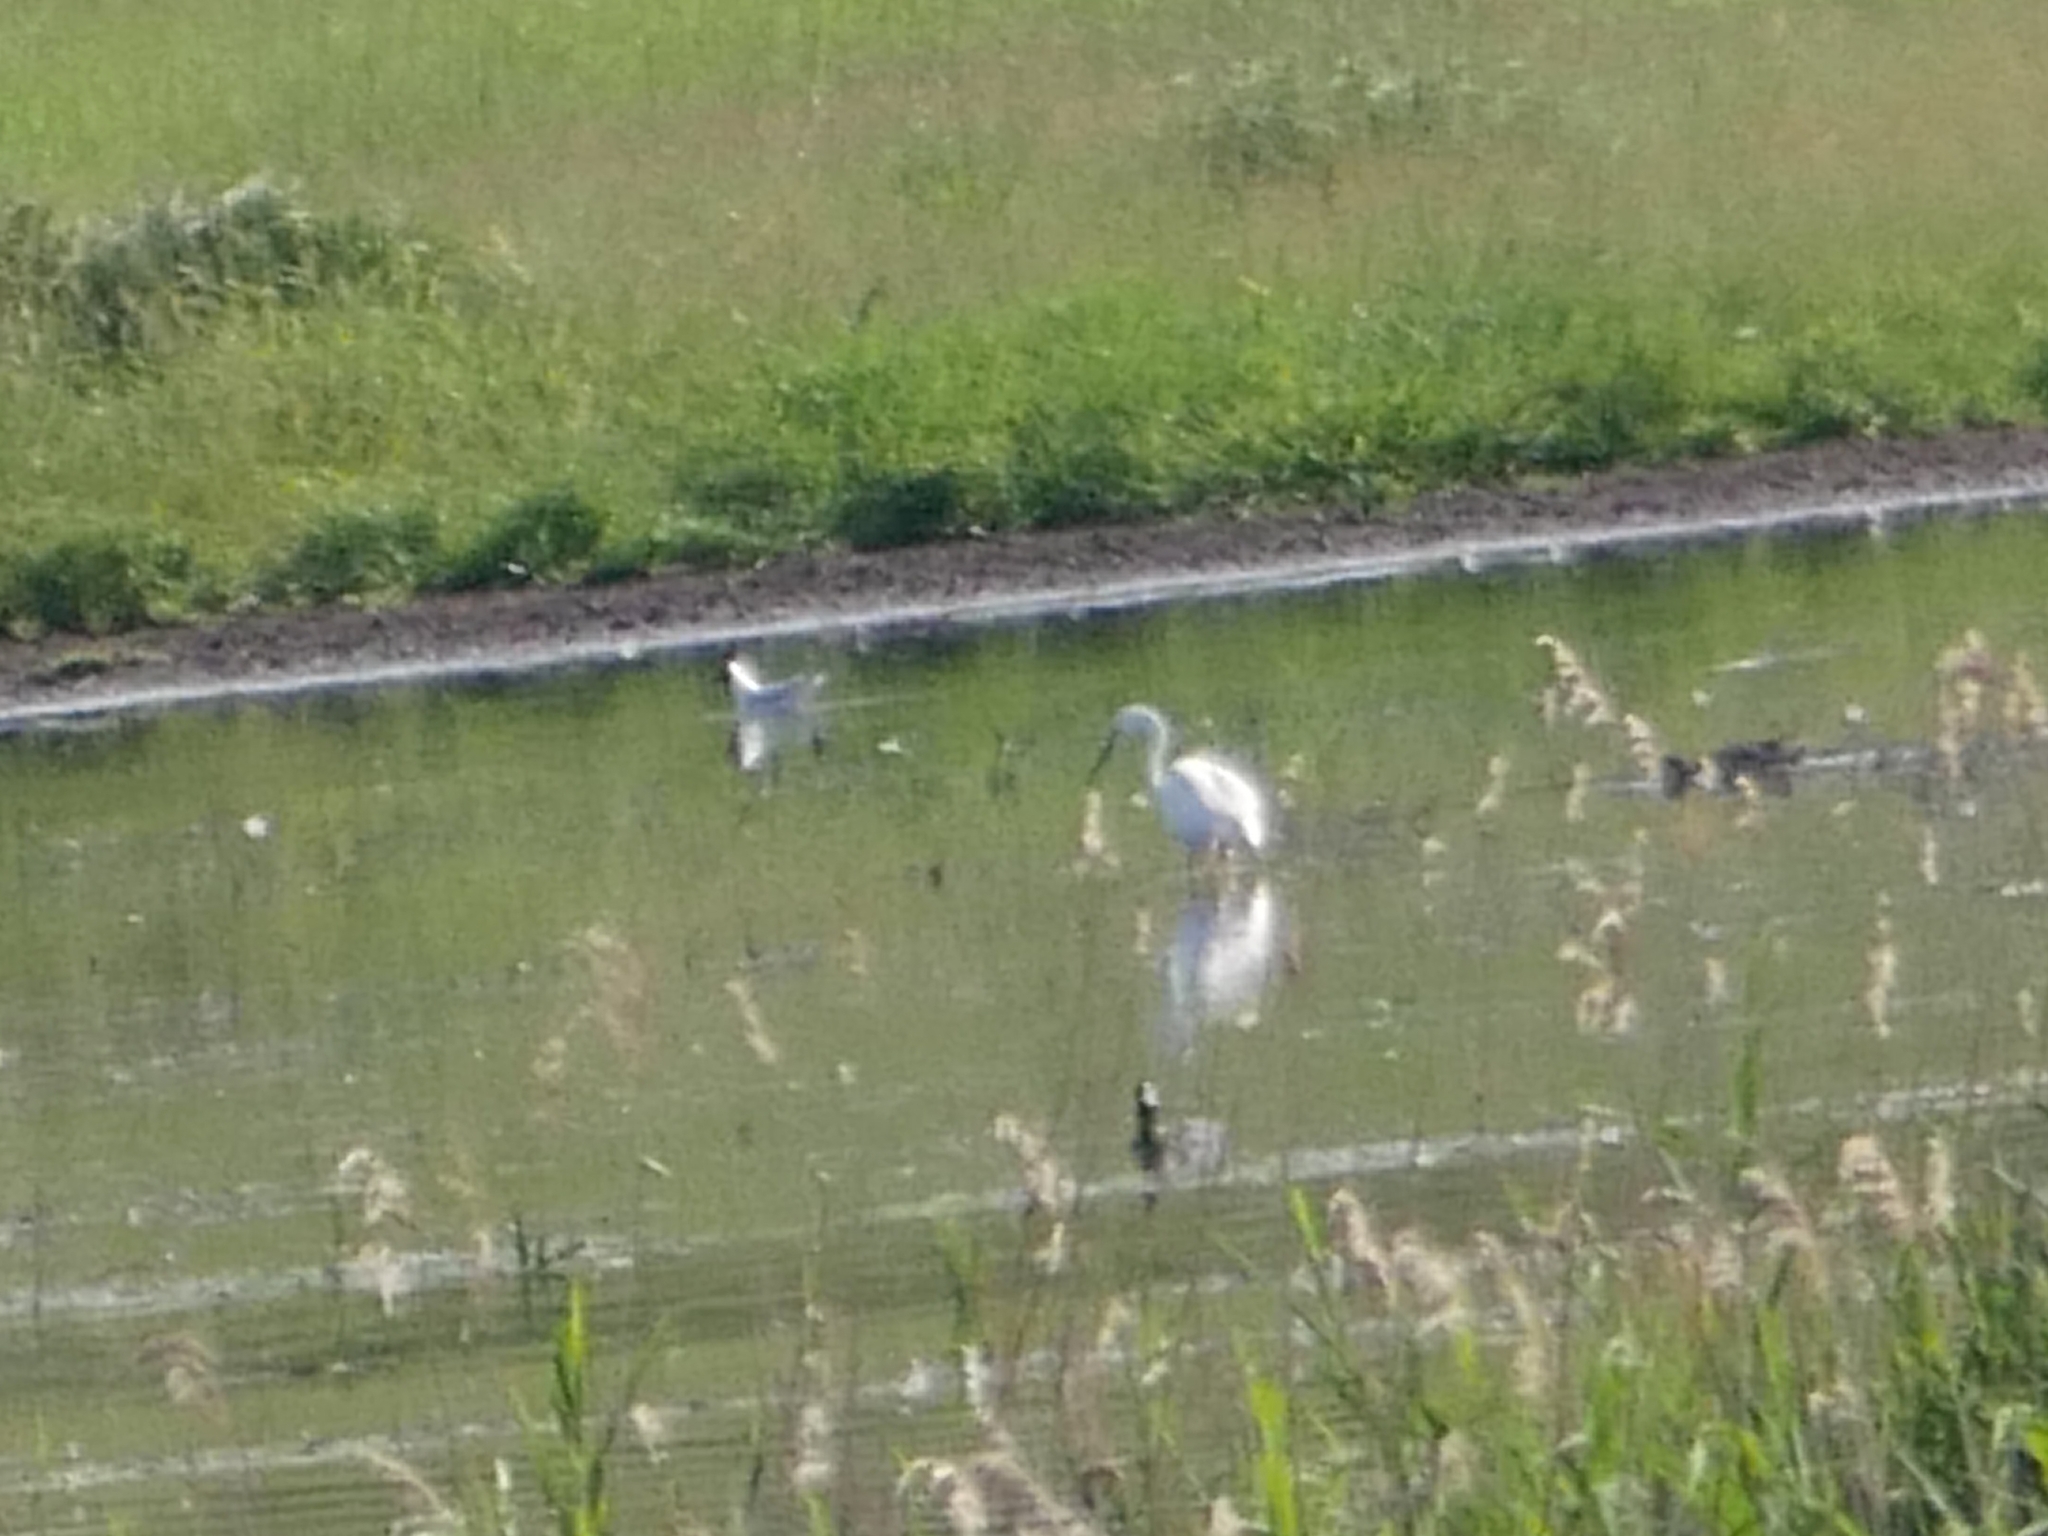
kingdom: Animalia
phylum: Chordata
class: Aves
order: Pelecaniformes
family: Ardeidae
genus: Ardea
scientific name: Ardea alba
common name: Great egret
